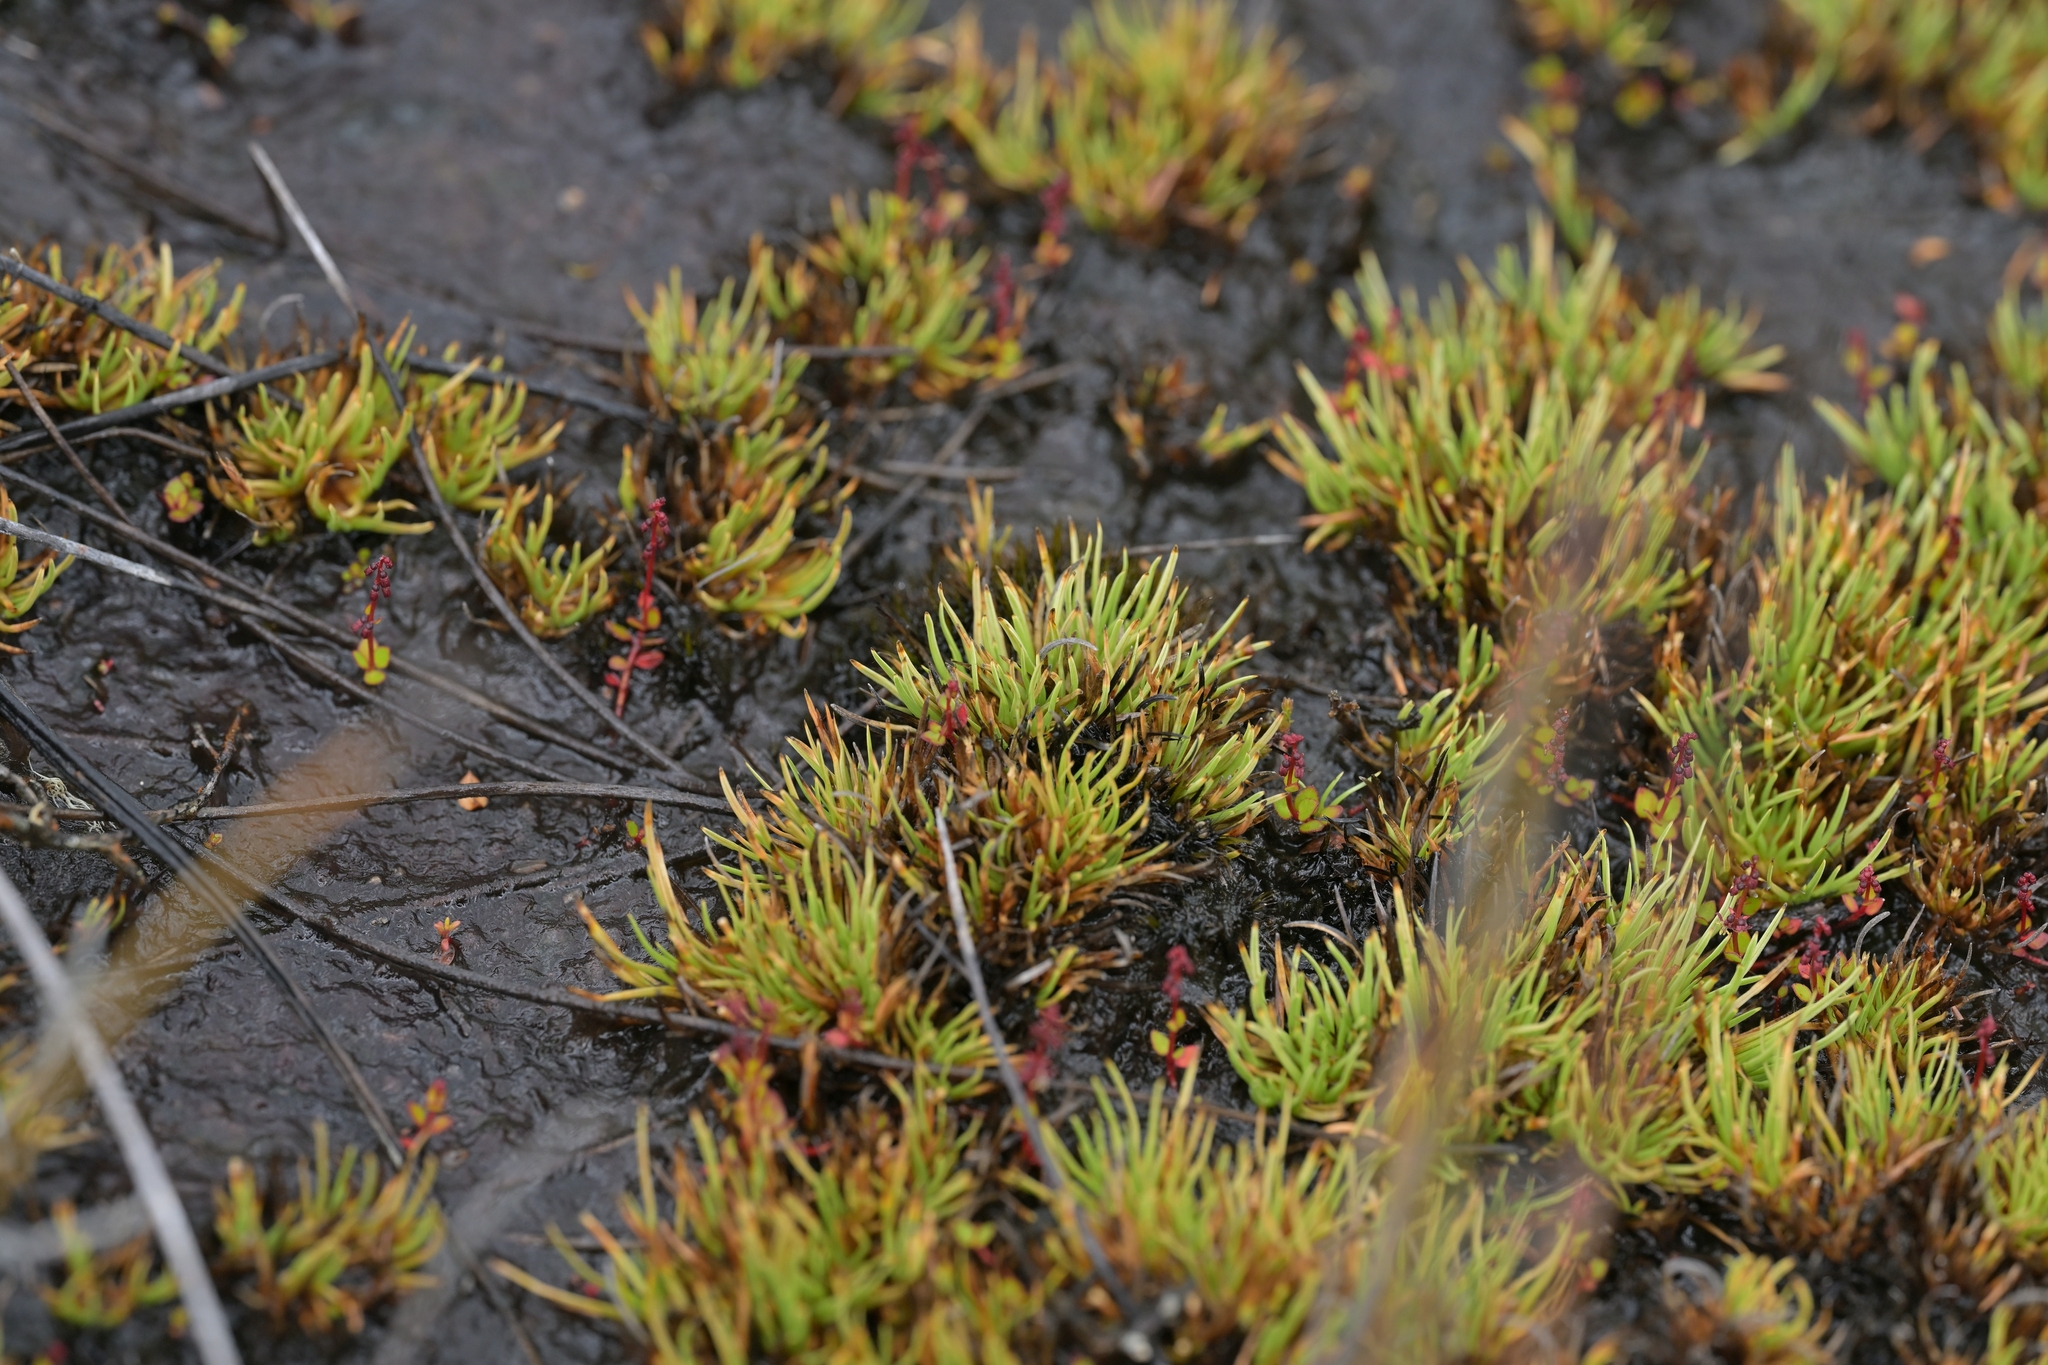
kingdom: Plantae
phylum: Tracheophyta
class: Liliopsida
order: Poales
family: Cyperaceae
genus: Oreobolus
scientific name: Oreobolus pectinatus
